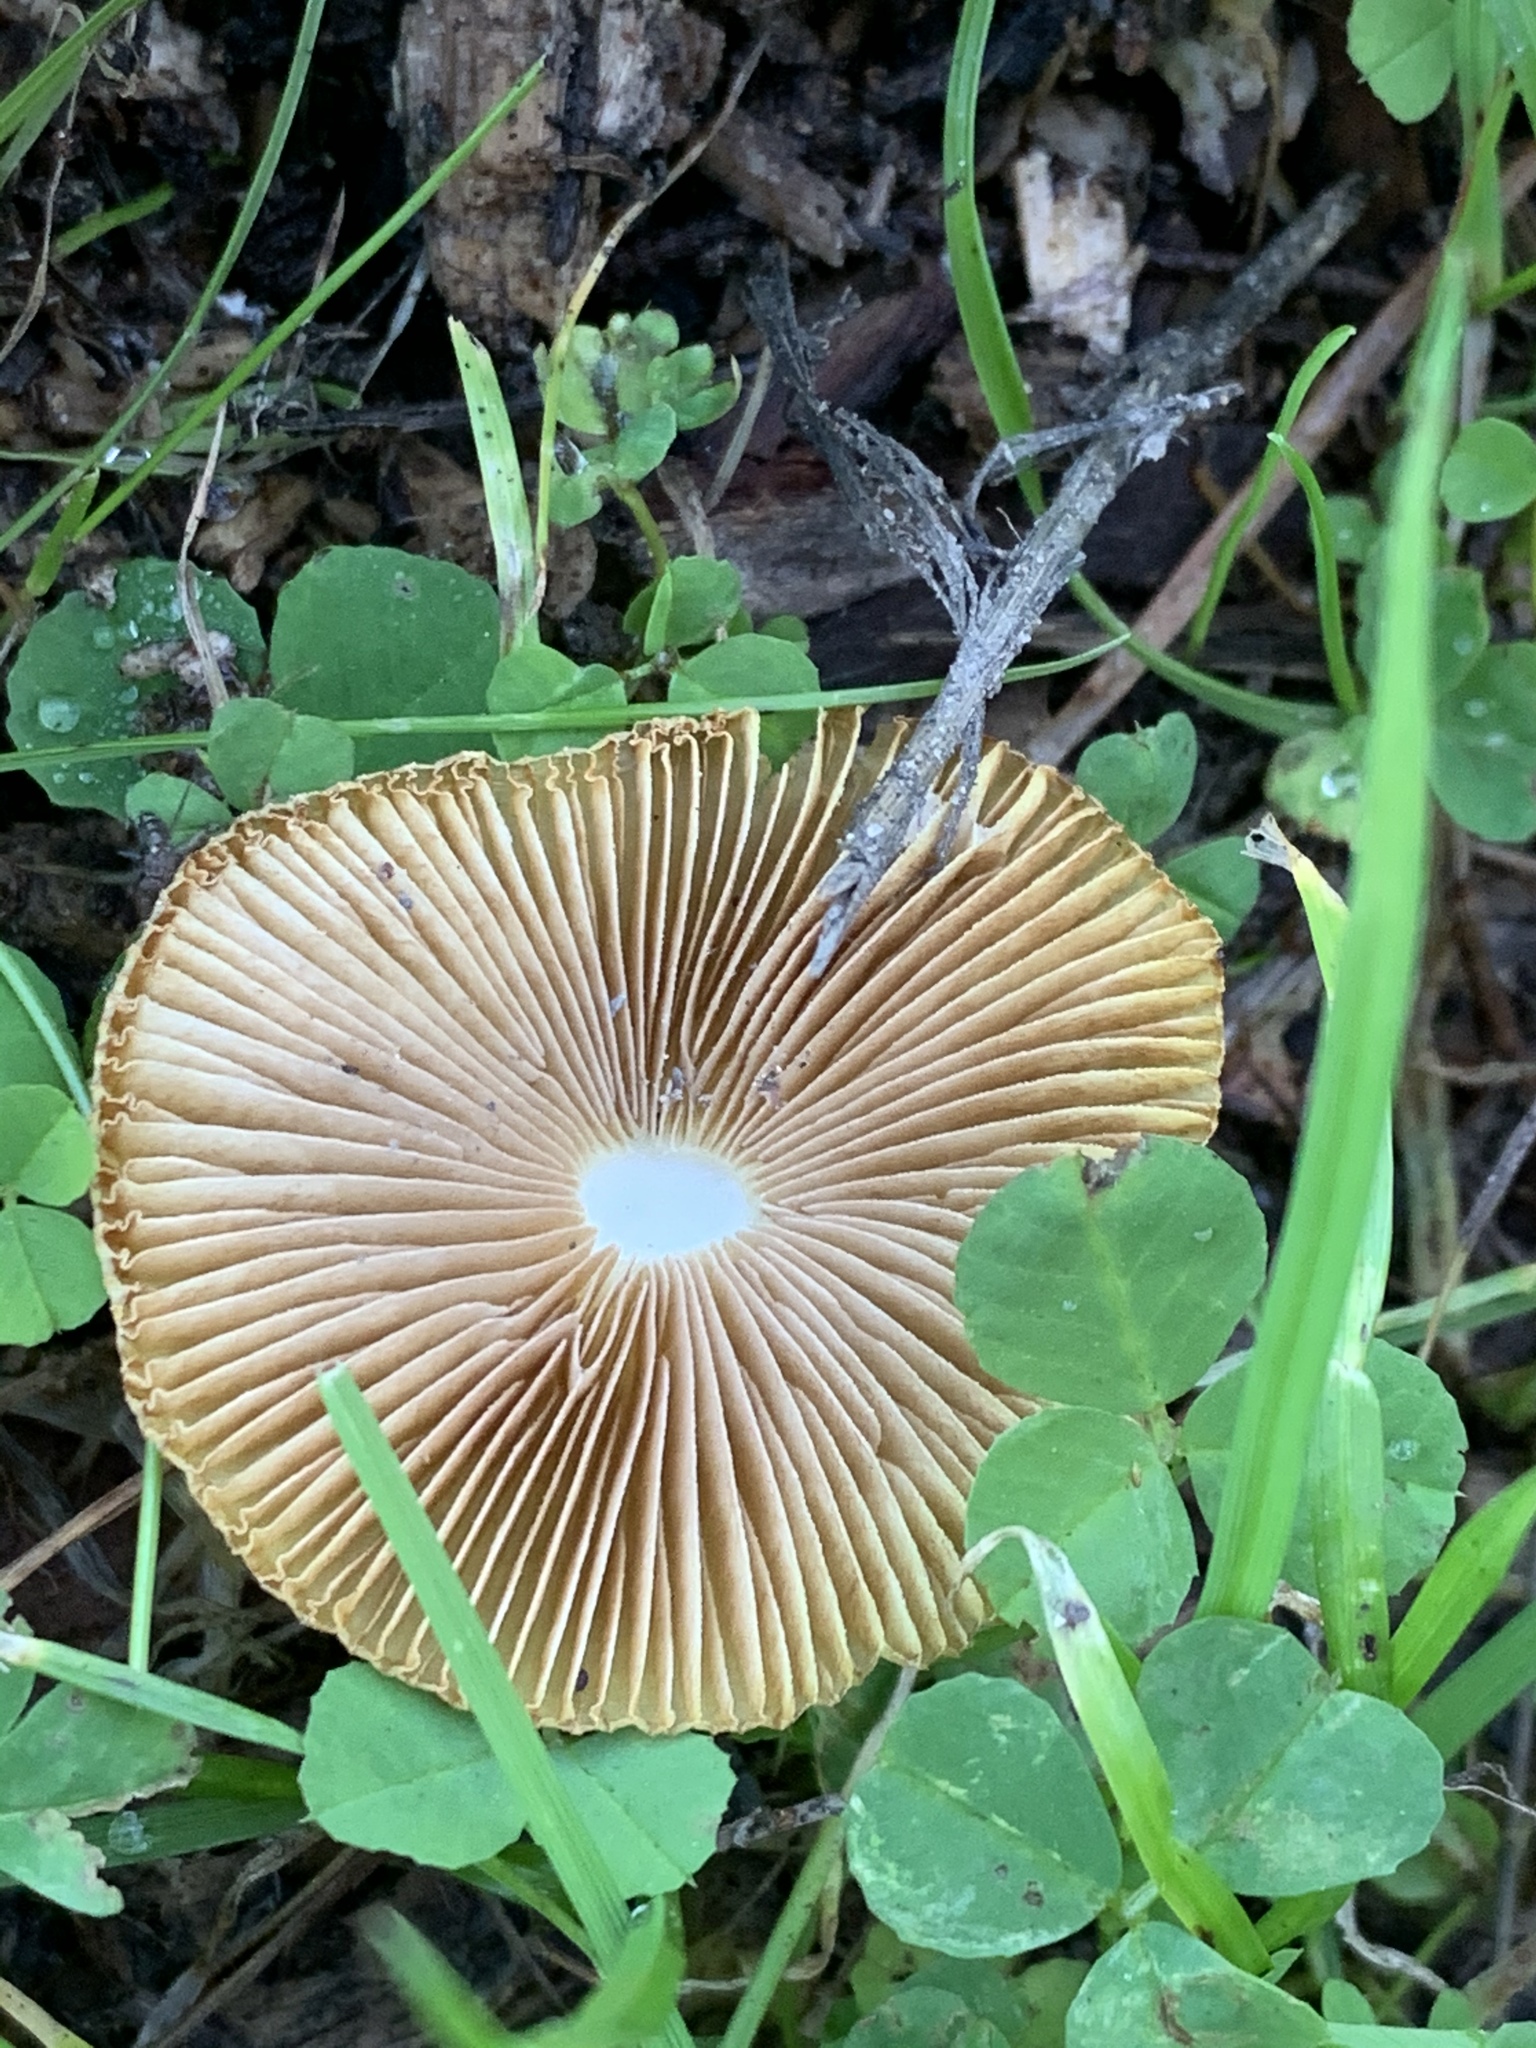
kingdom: Fungi
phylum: Basidiomycota
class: Agaricomycetes
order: Agaricales
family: Bolbitiaceae
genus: Bolbitius
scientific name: Bolbitius titubans
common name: Yellow fieldcap
